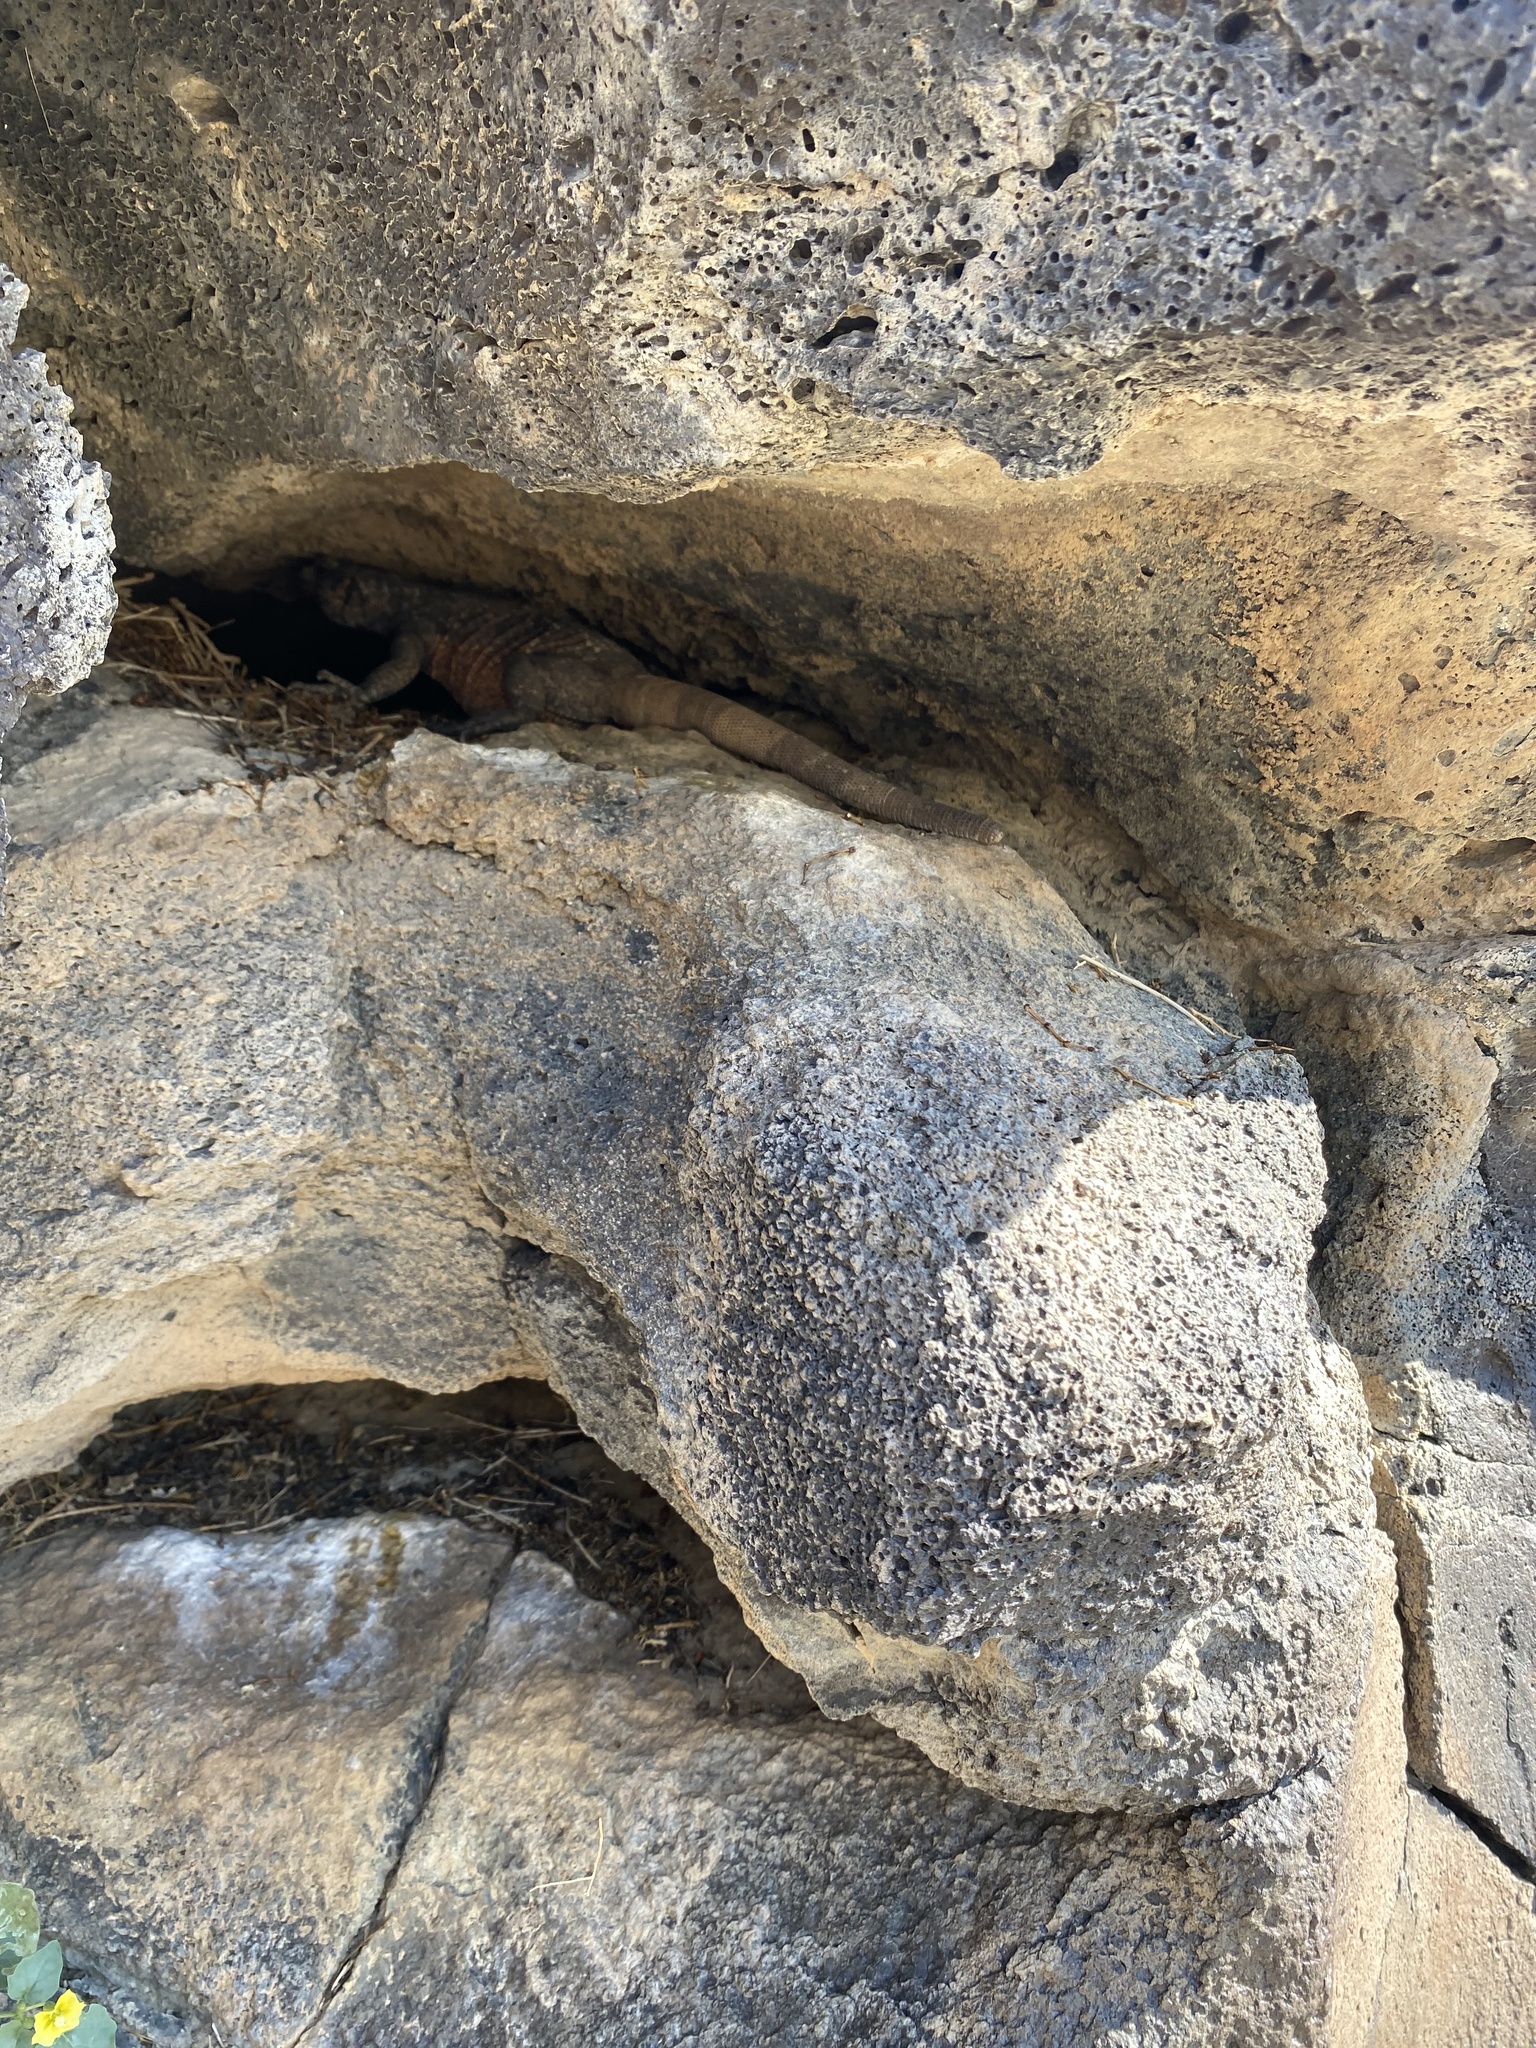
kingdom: Animalia
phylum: Chordata
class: Squamata
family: Iguanidae
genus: Sauromalus
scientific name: Sauromalus ater
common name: Northern chuckwalla
